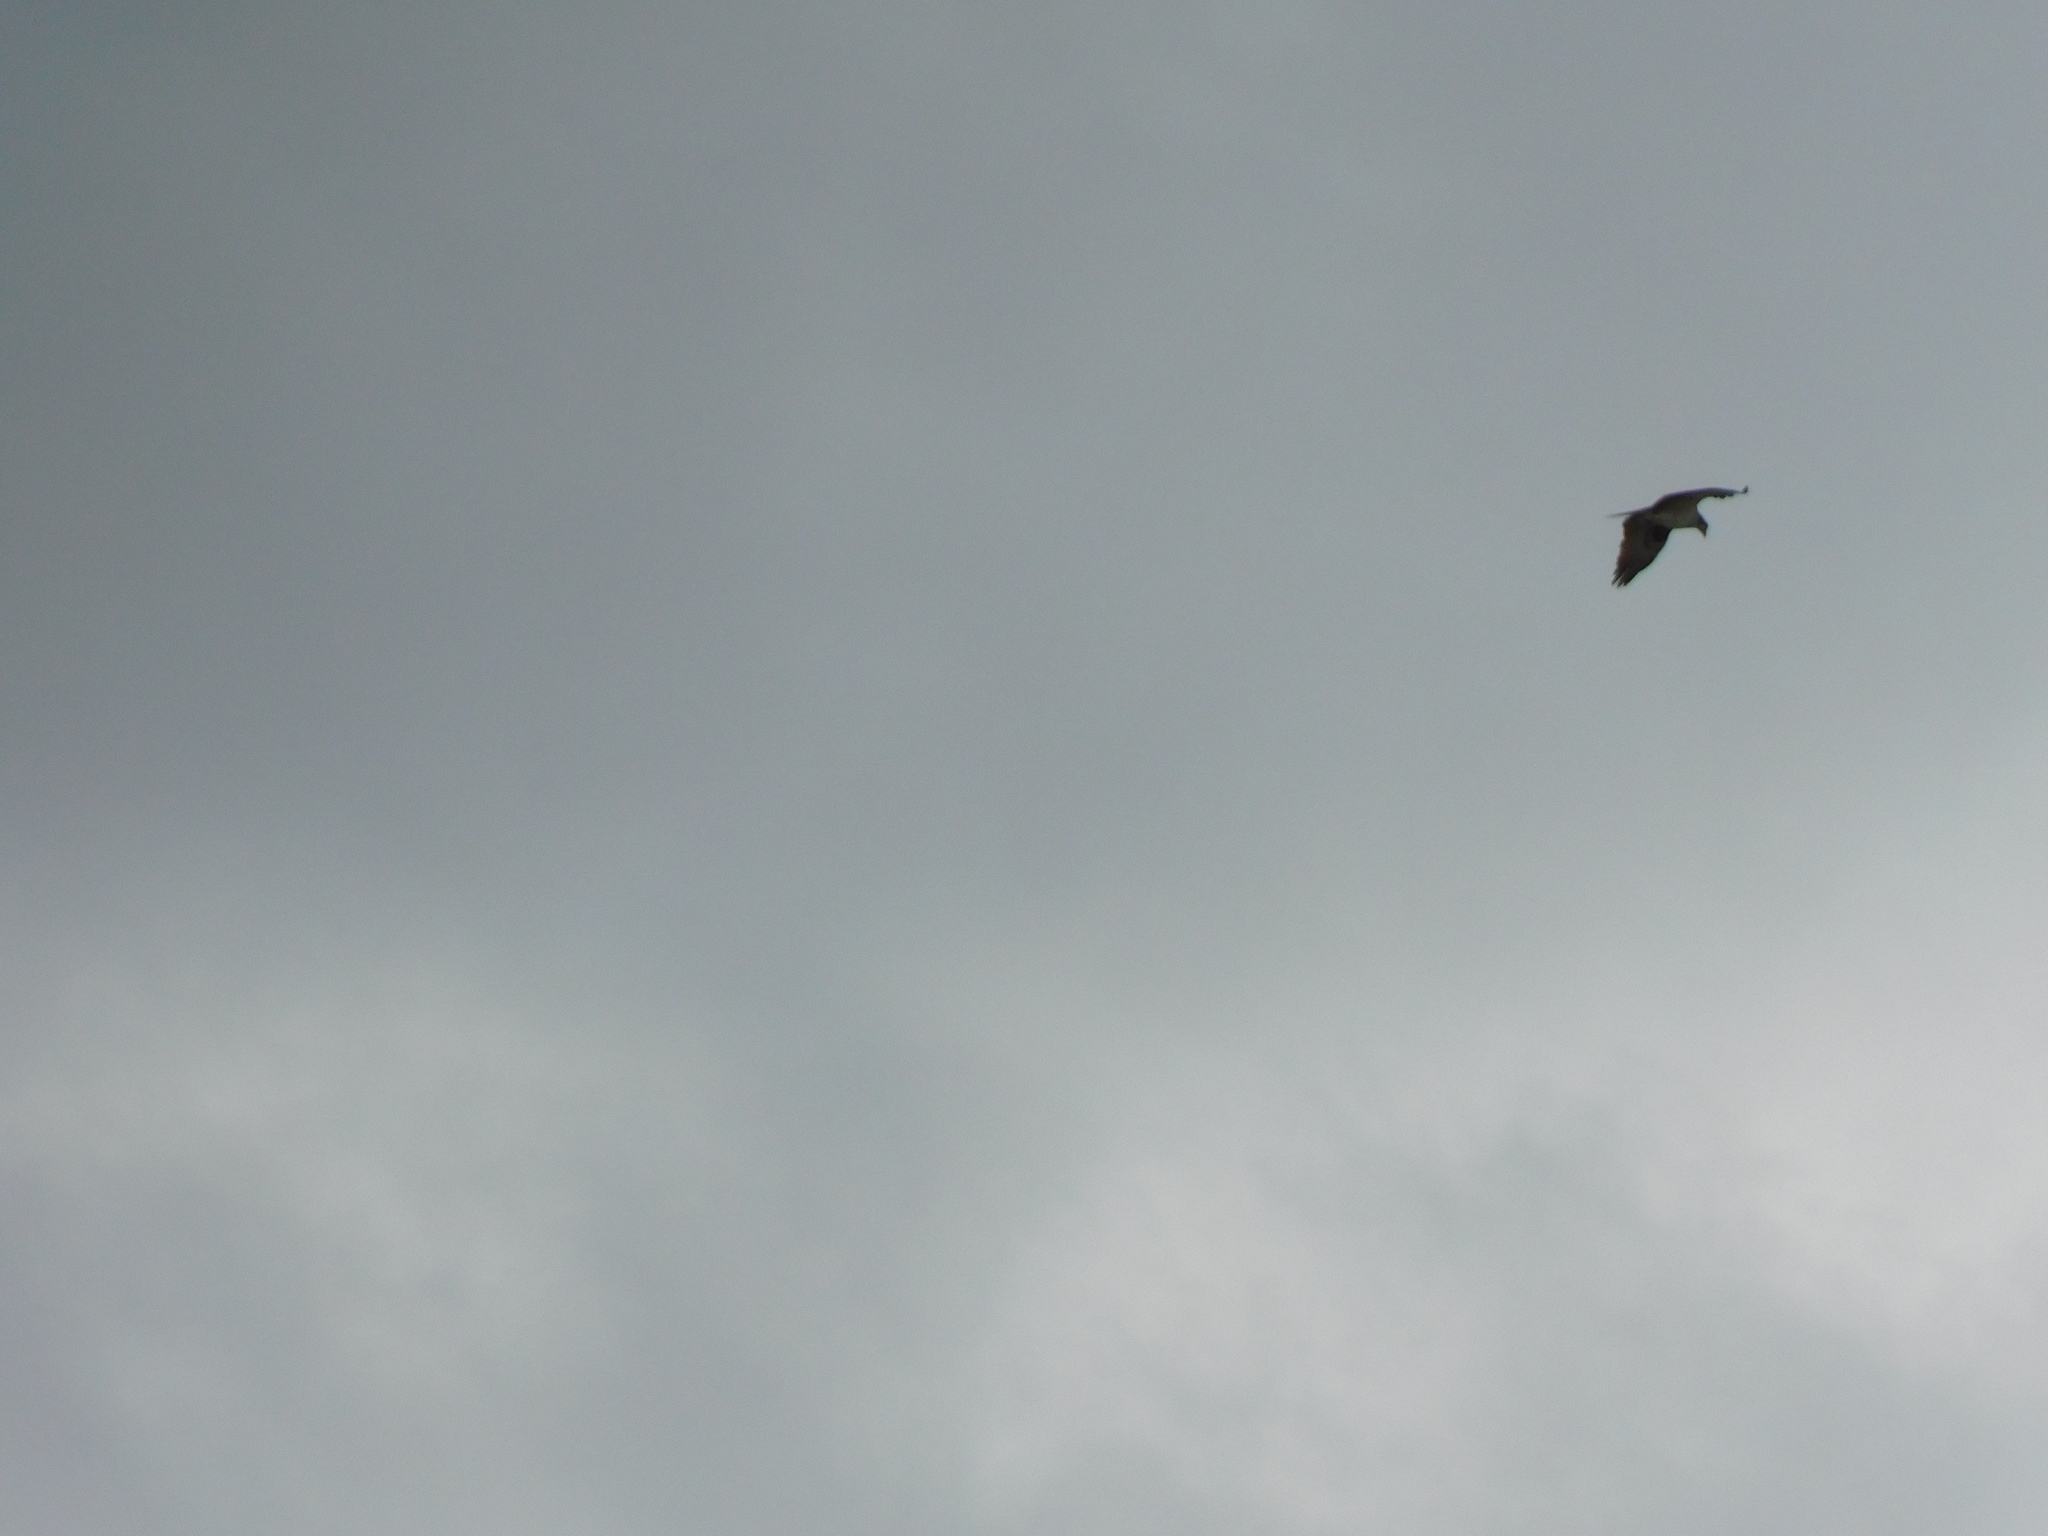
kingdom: Animalia
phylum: Chordata
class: Aves
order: Accipitriformes
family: Pandionidae
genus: Pandion
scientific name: Pandion haliaetus
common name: Osprey
